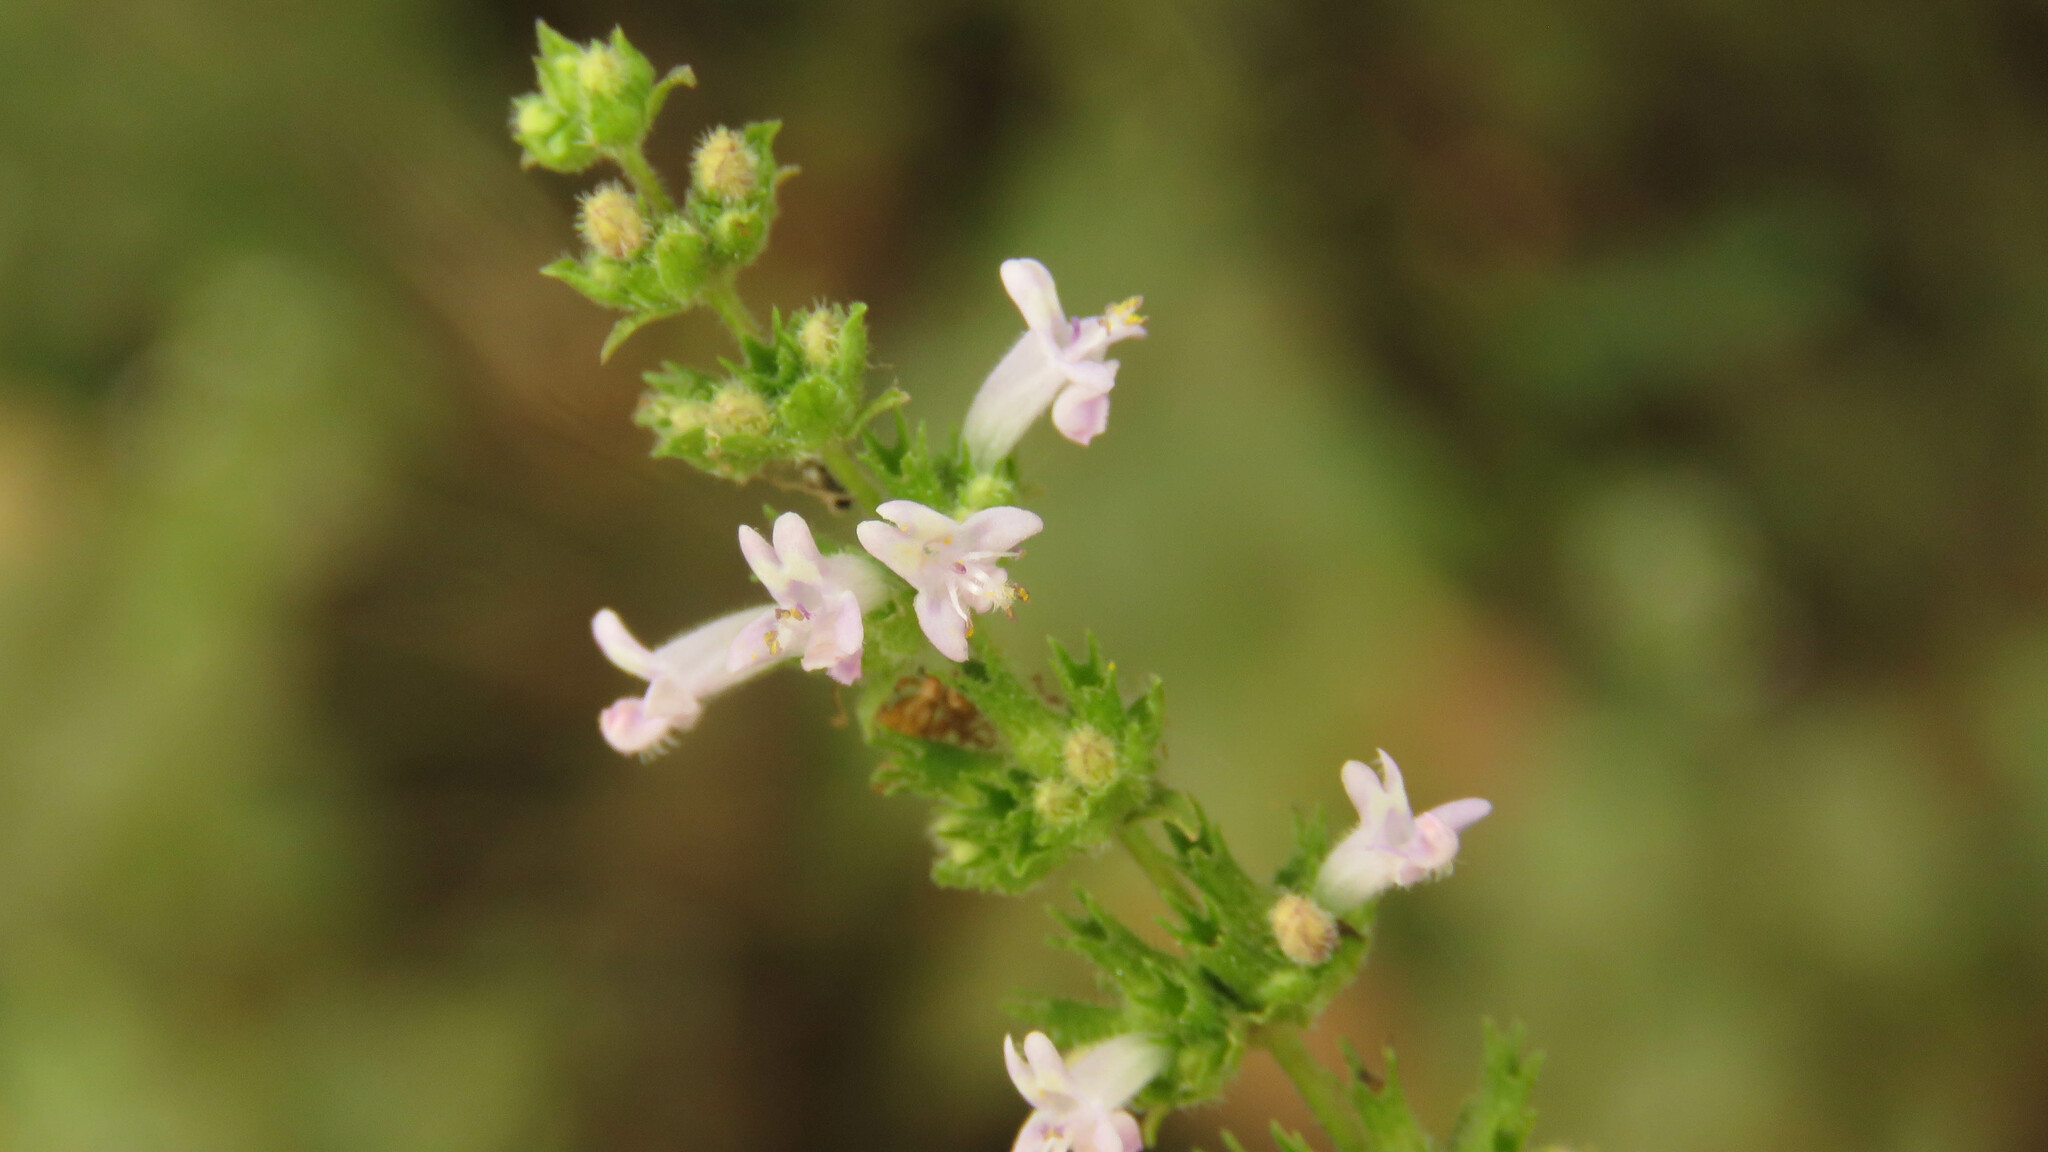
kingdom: Plantae
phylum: Tracheophyta
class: Magnoliopsida
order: Lamiales
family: Lamiaceae
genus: Cantinoa
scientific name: Cantinoa mutabilis
